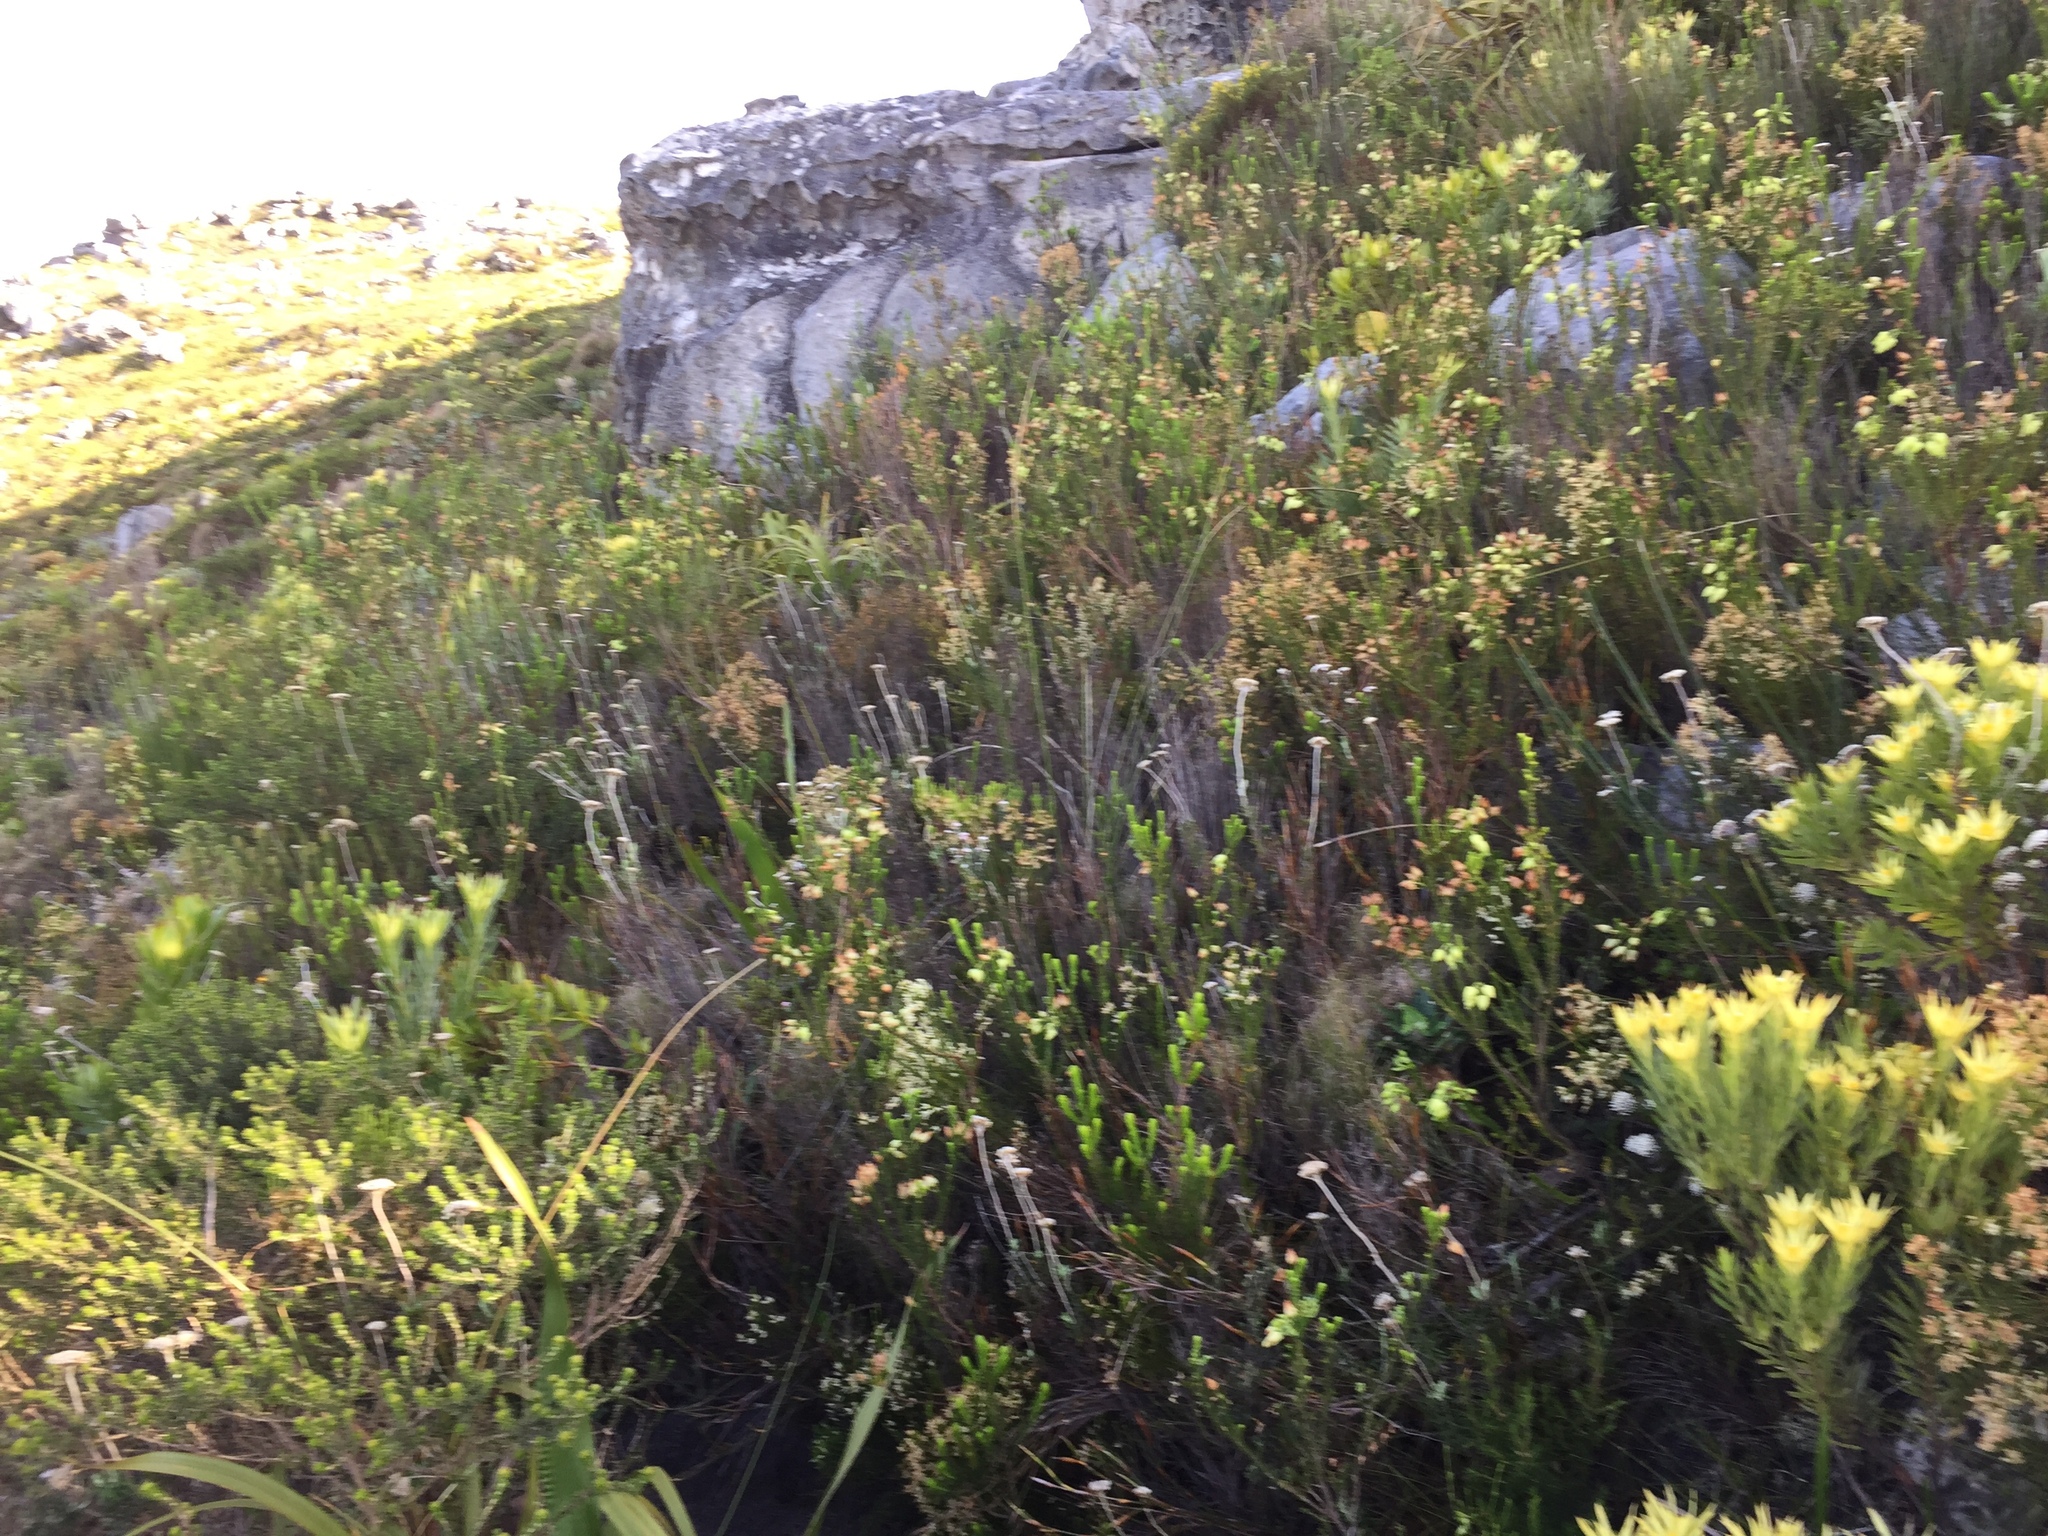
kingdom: Plantae
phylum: Tracheophyta
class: Magnoliopsida
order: Ericales
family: Ericaceae
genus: Erica
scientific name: Erica urna-viridis
